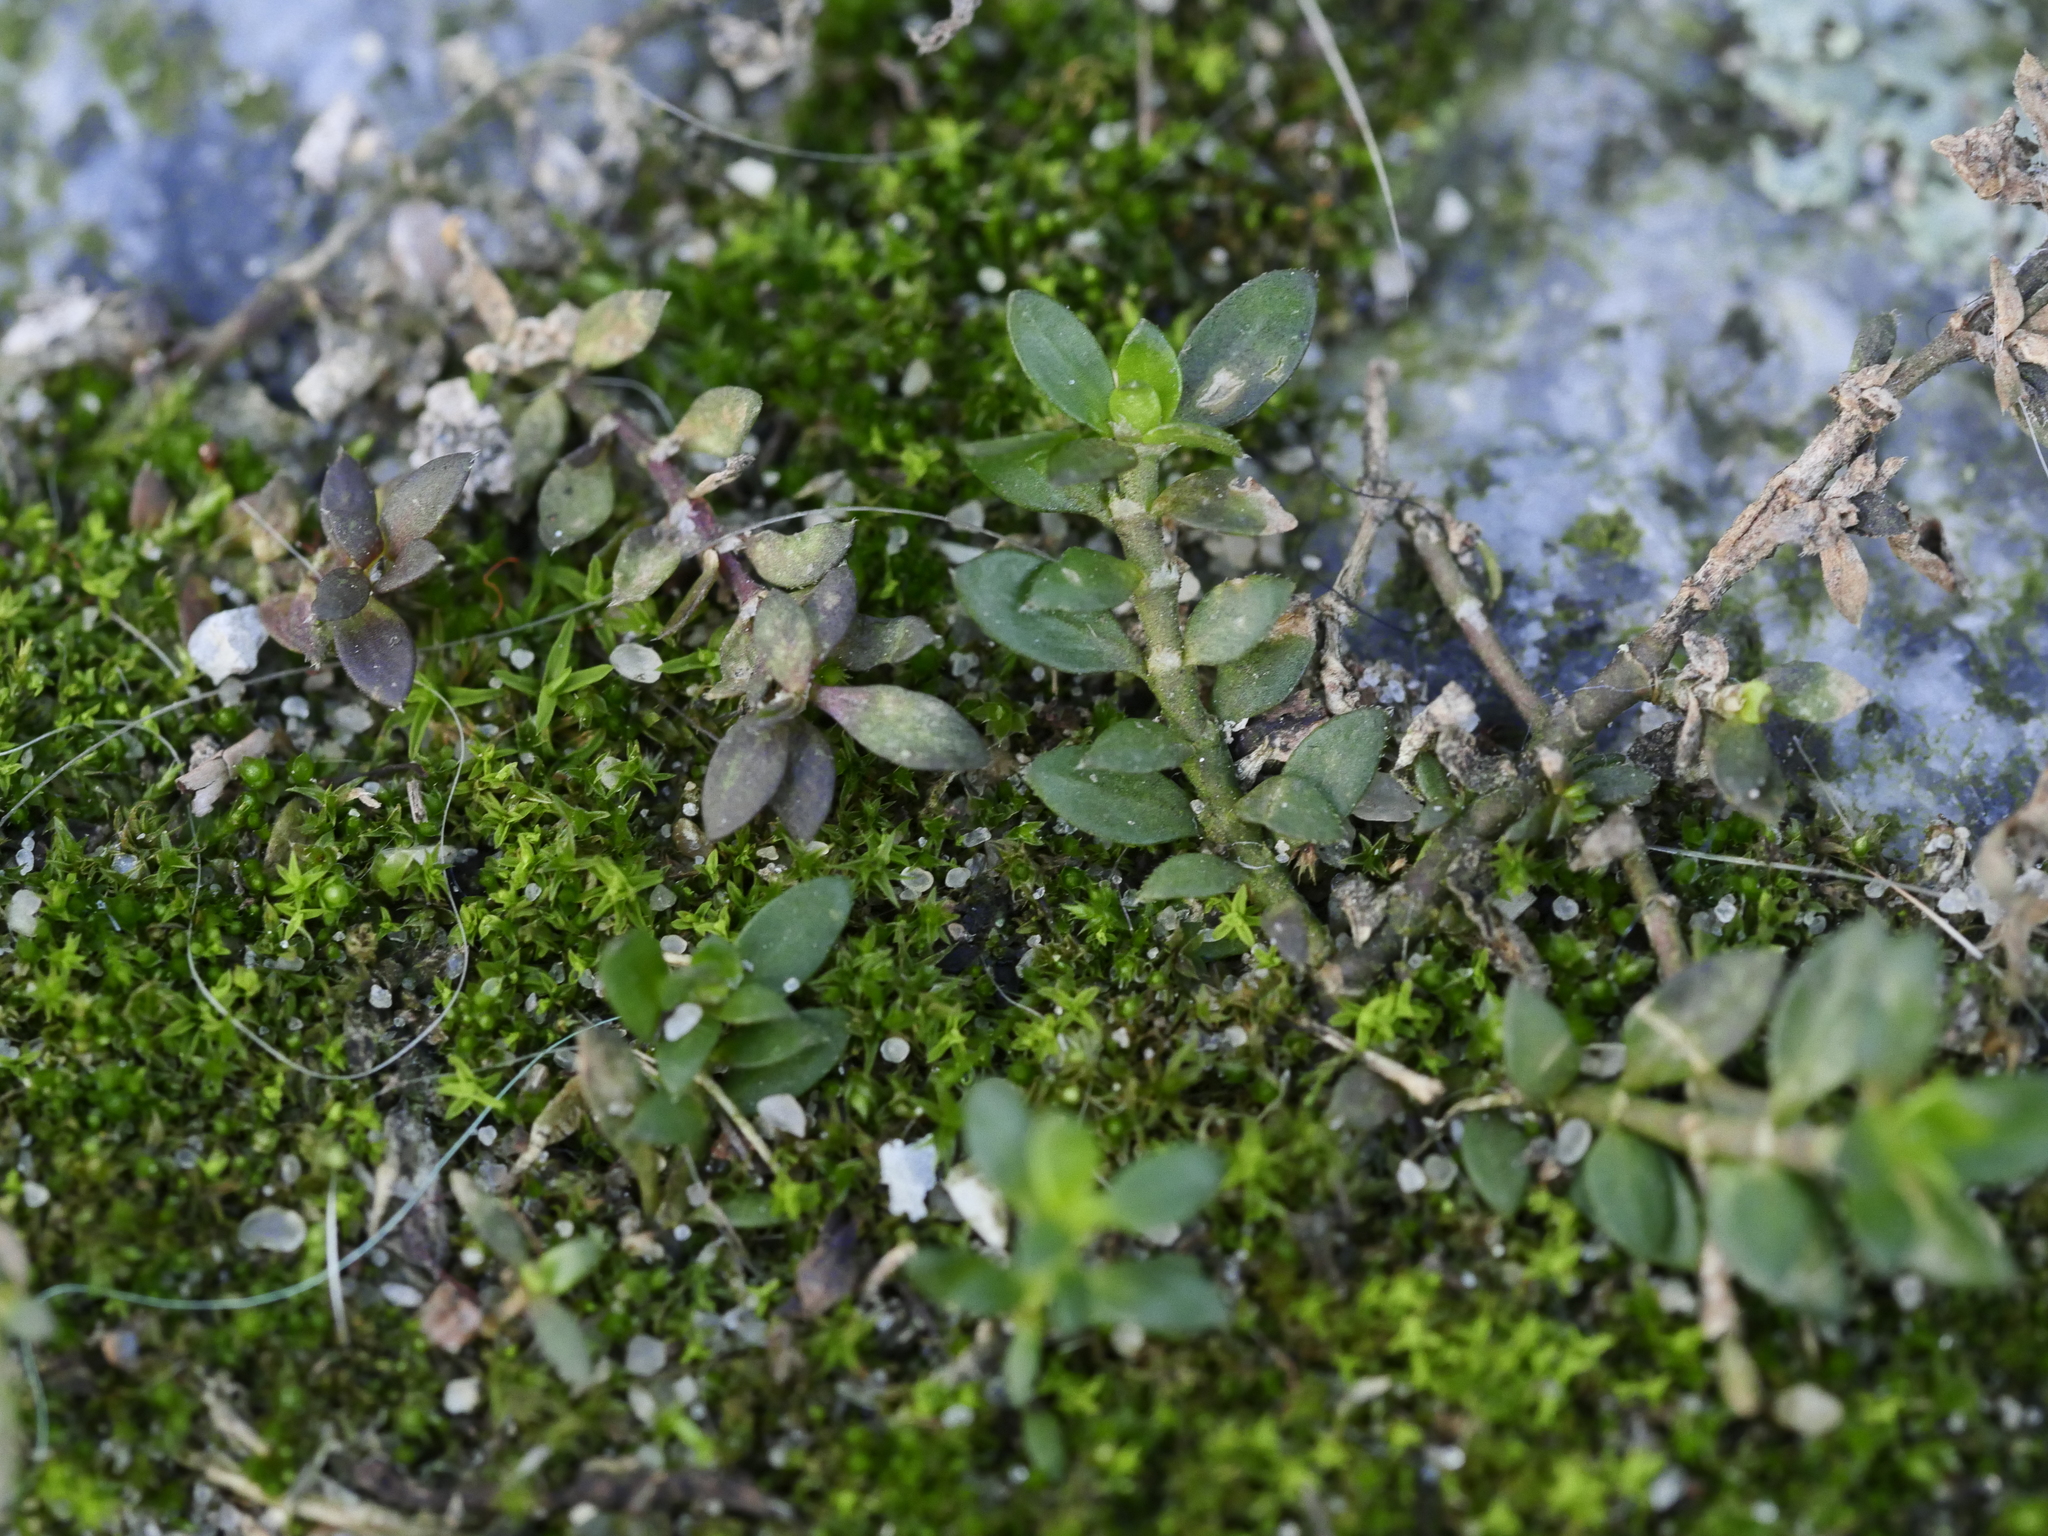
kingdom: Plantae
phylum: Tracheophyta
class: Magnoliopsida
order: Caryophyllales
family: Caryophyllaceae
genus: Herniaria
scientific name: Herniaria glabra
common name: Smooth rupturewort
